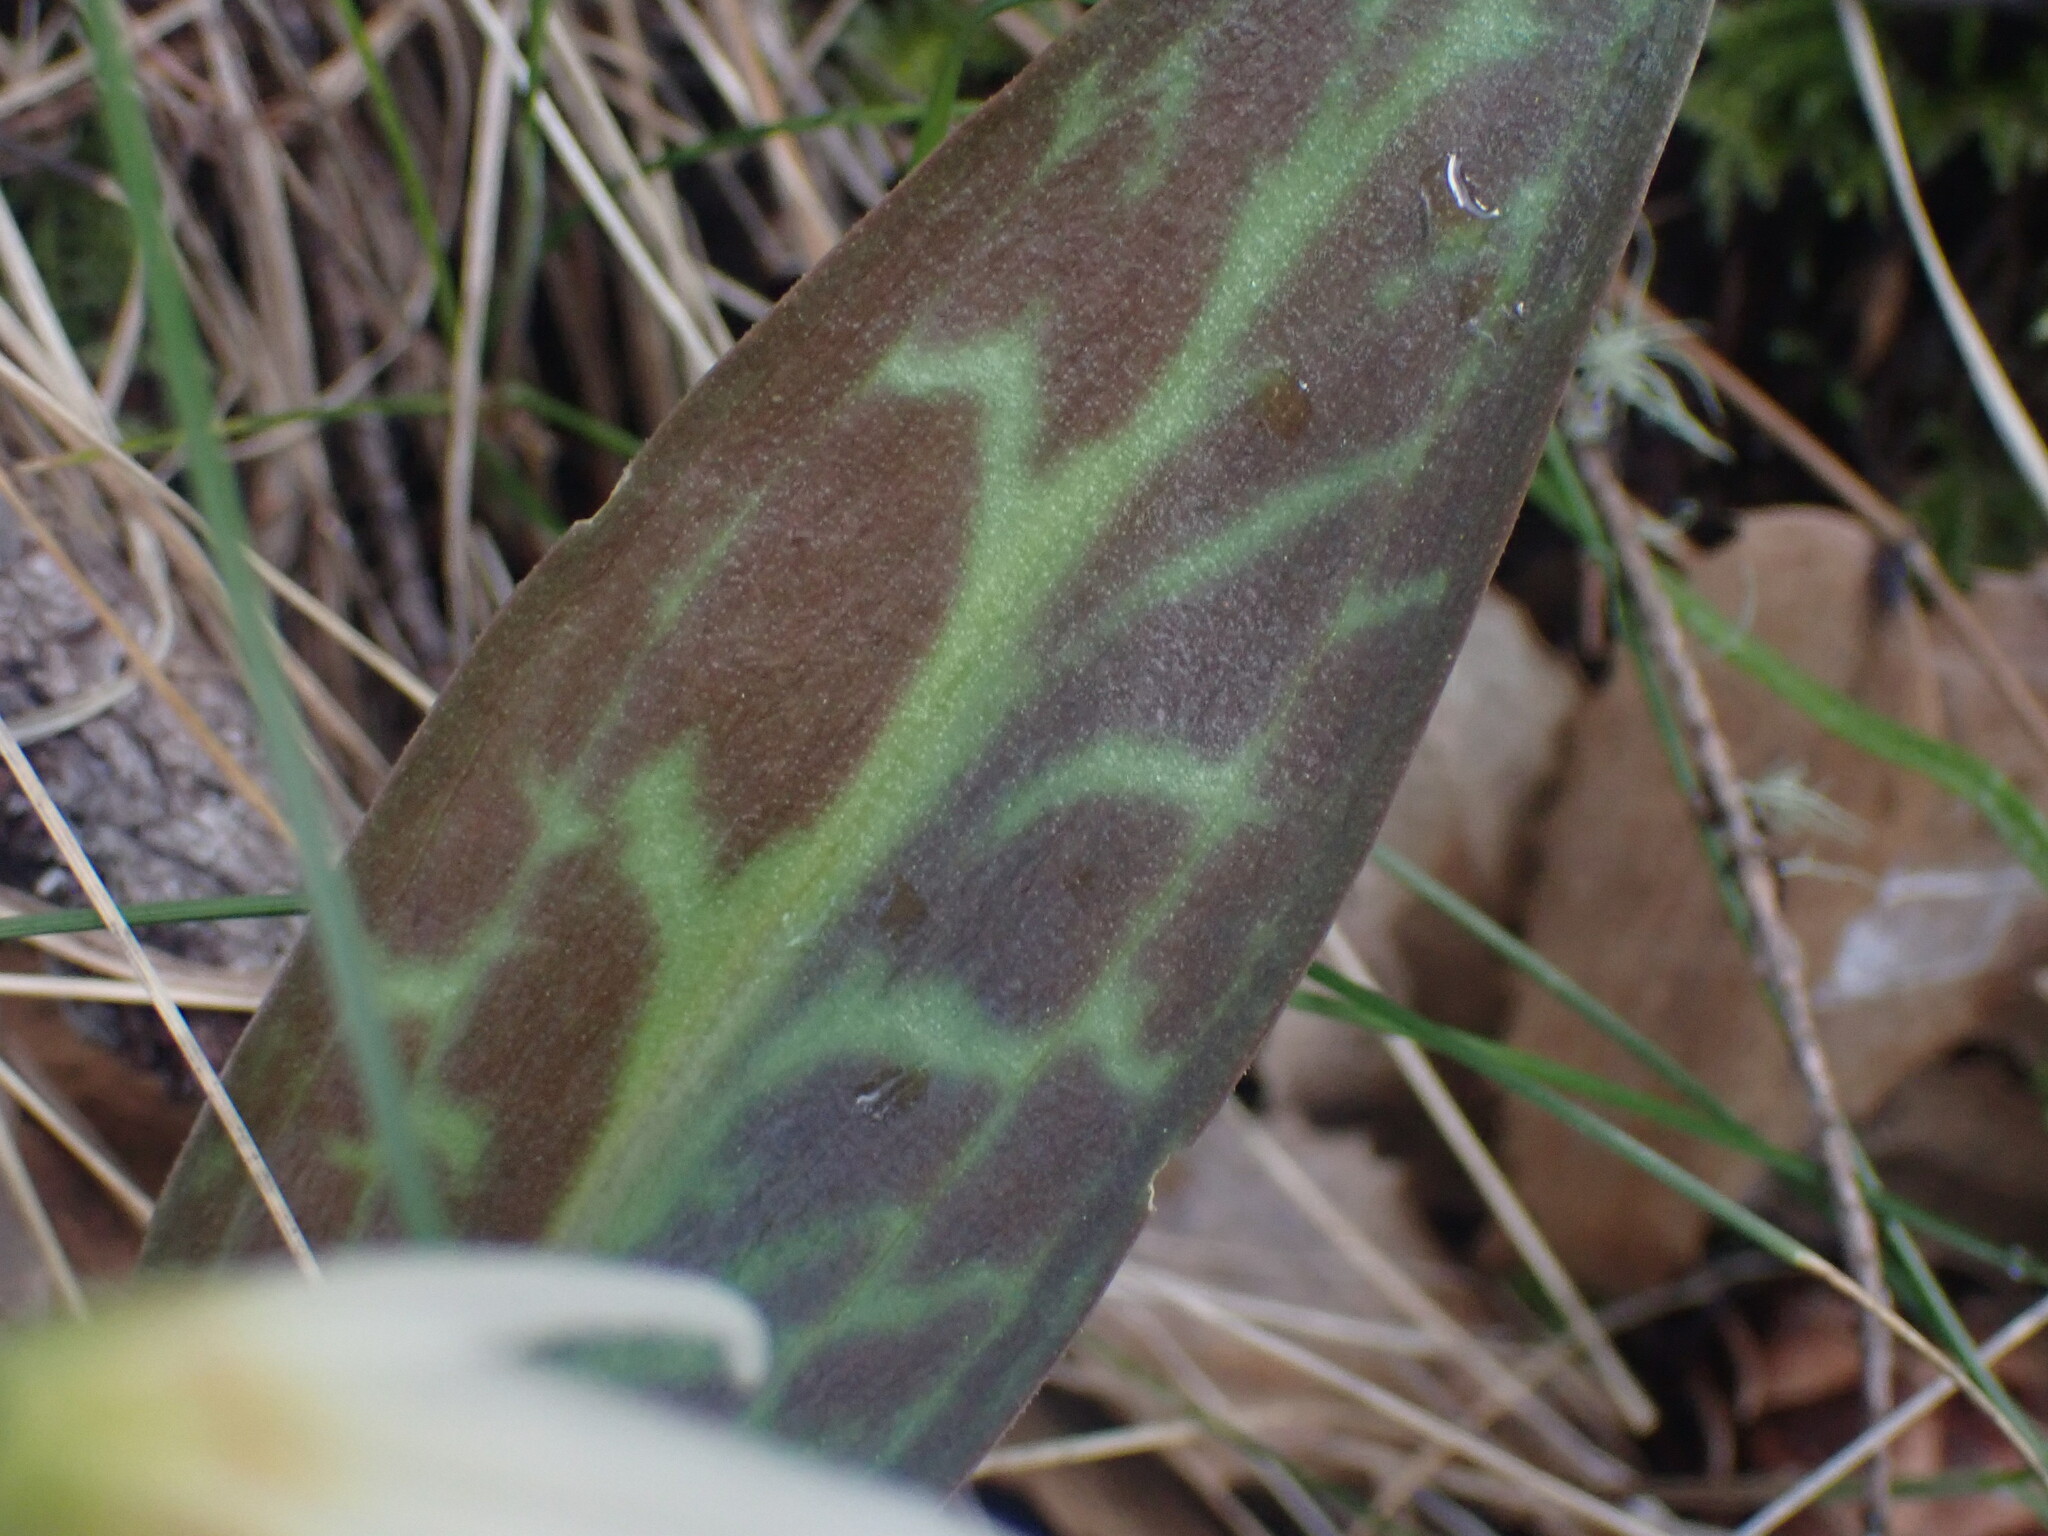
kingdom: Plantae
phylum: Tracheophyta
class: Liliopsida
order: Liliales
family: Liliaceae
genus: Erythronium
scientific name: Erythronium oregonum
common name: Giant adder's-tongue
